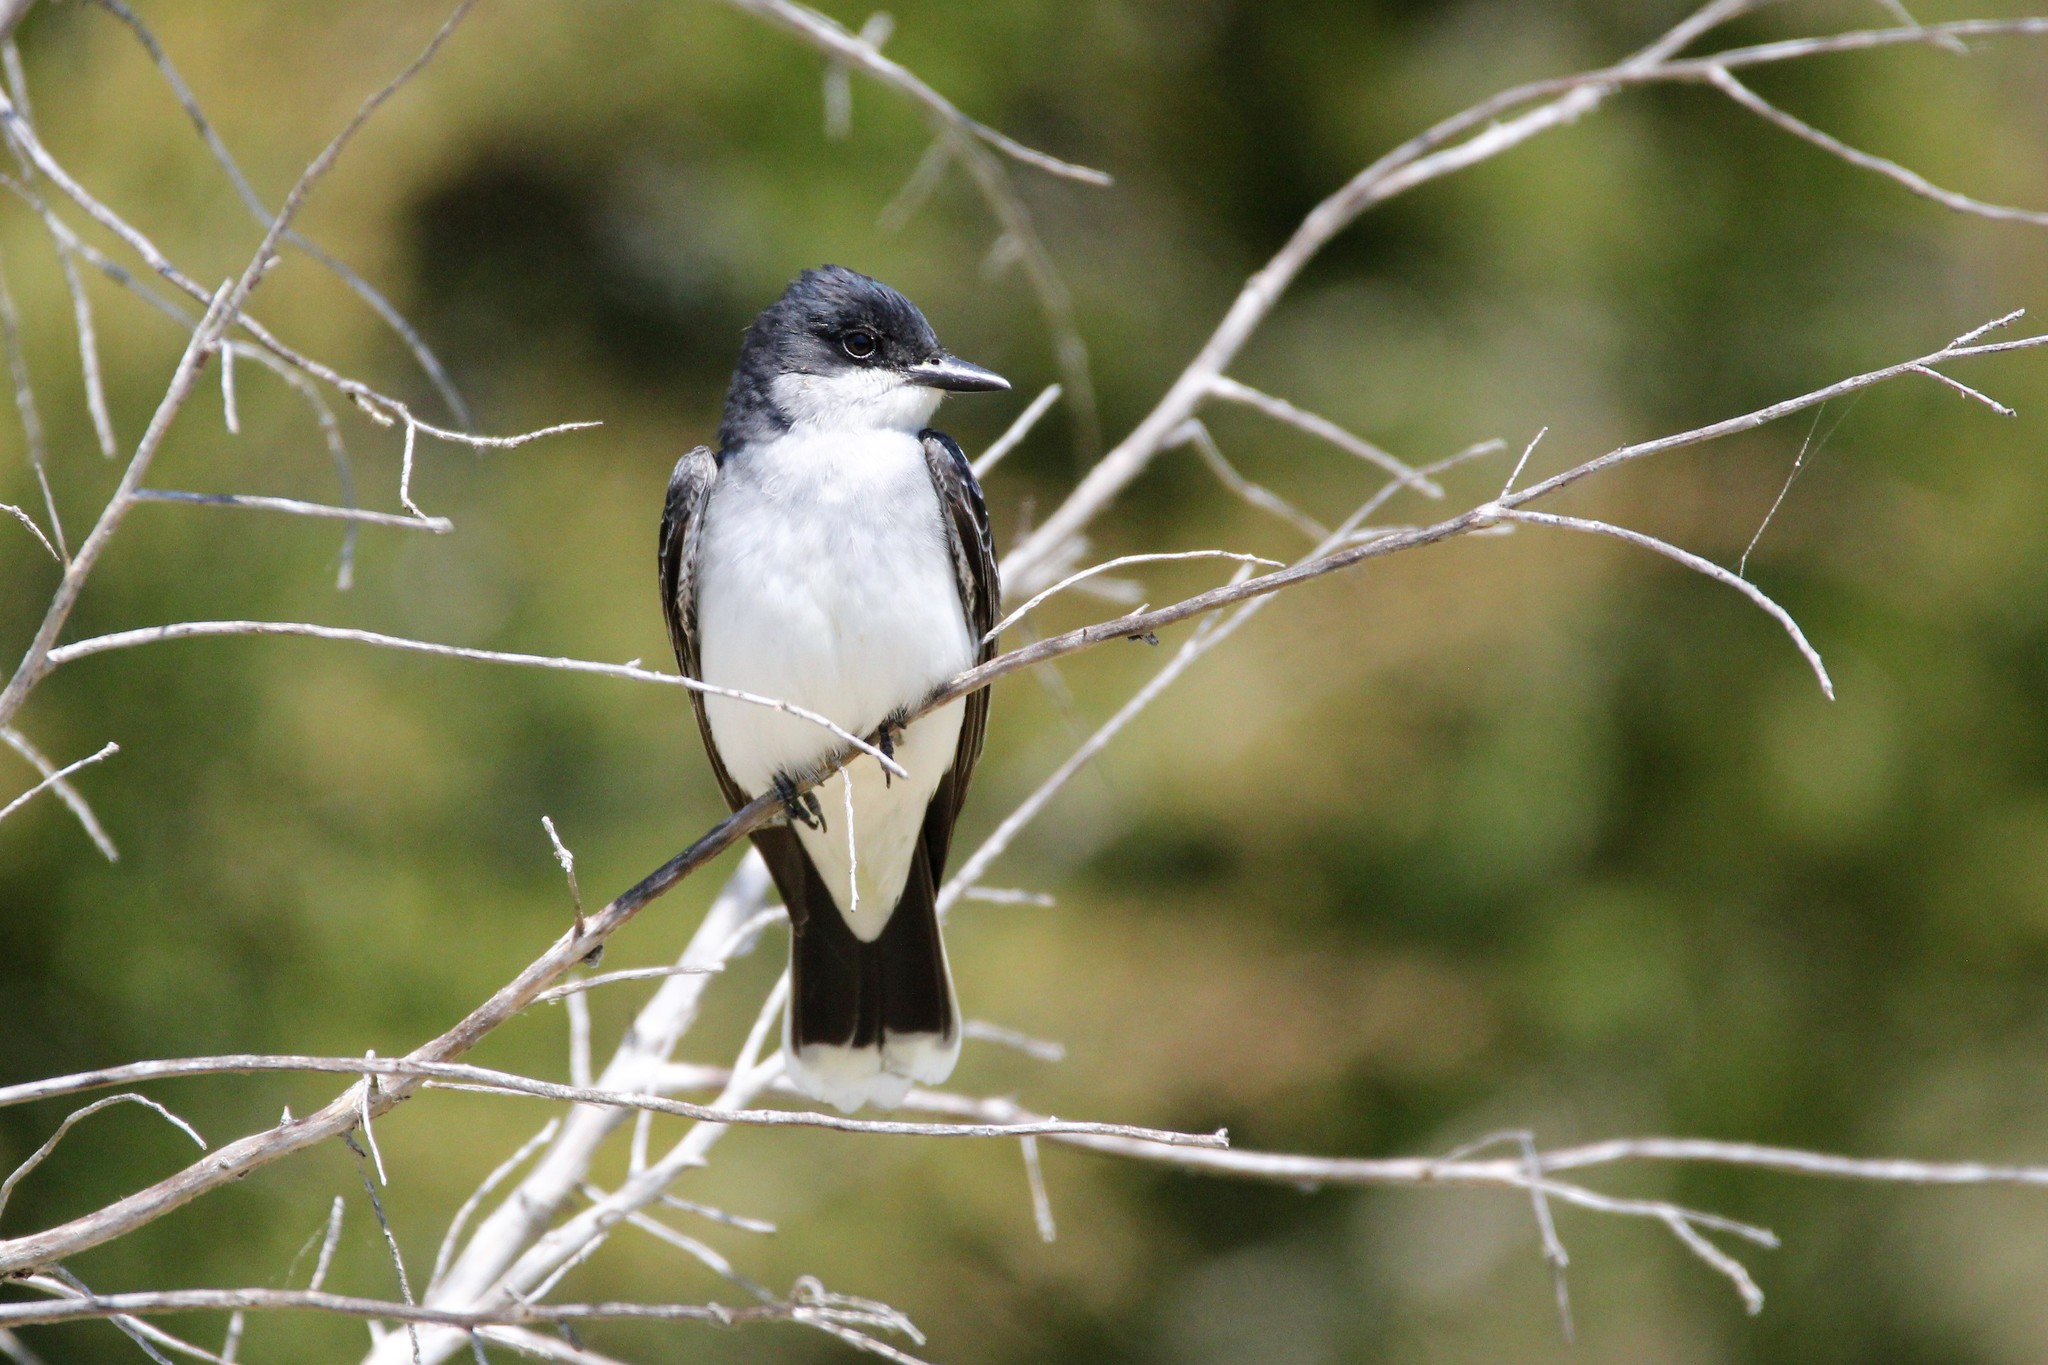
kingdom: Animalia
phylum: Chordata
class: Aves
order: Passeriformes
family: Tyrannidae
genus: Tyrannus
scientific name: Tyrannus tyrannus
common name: Eastern kingbird
